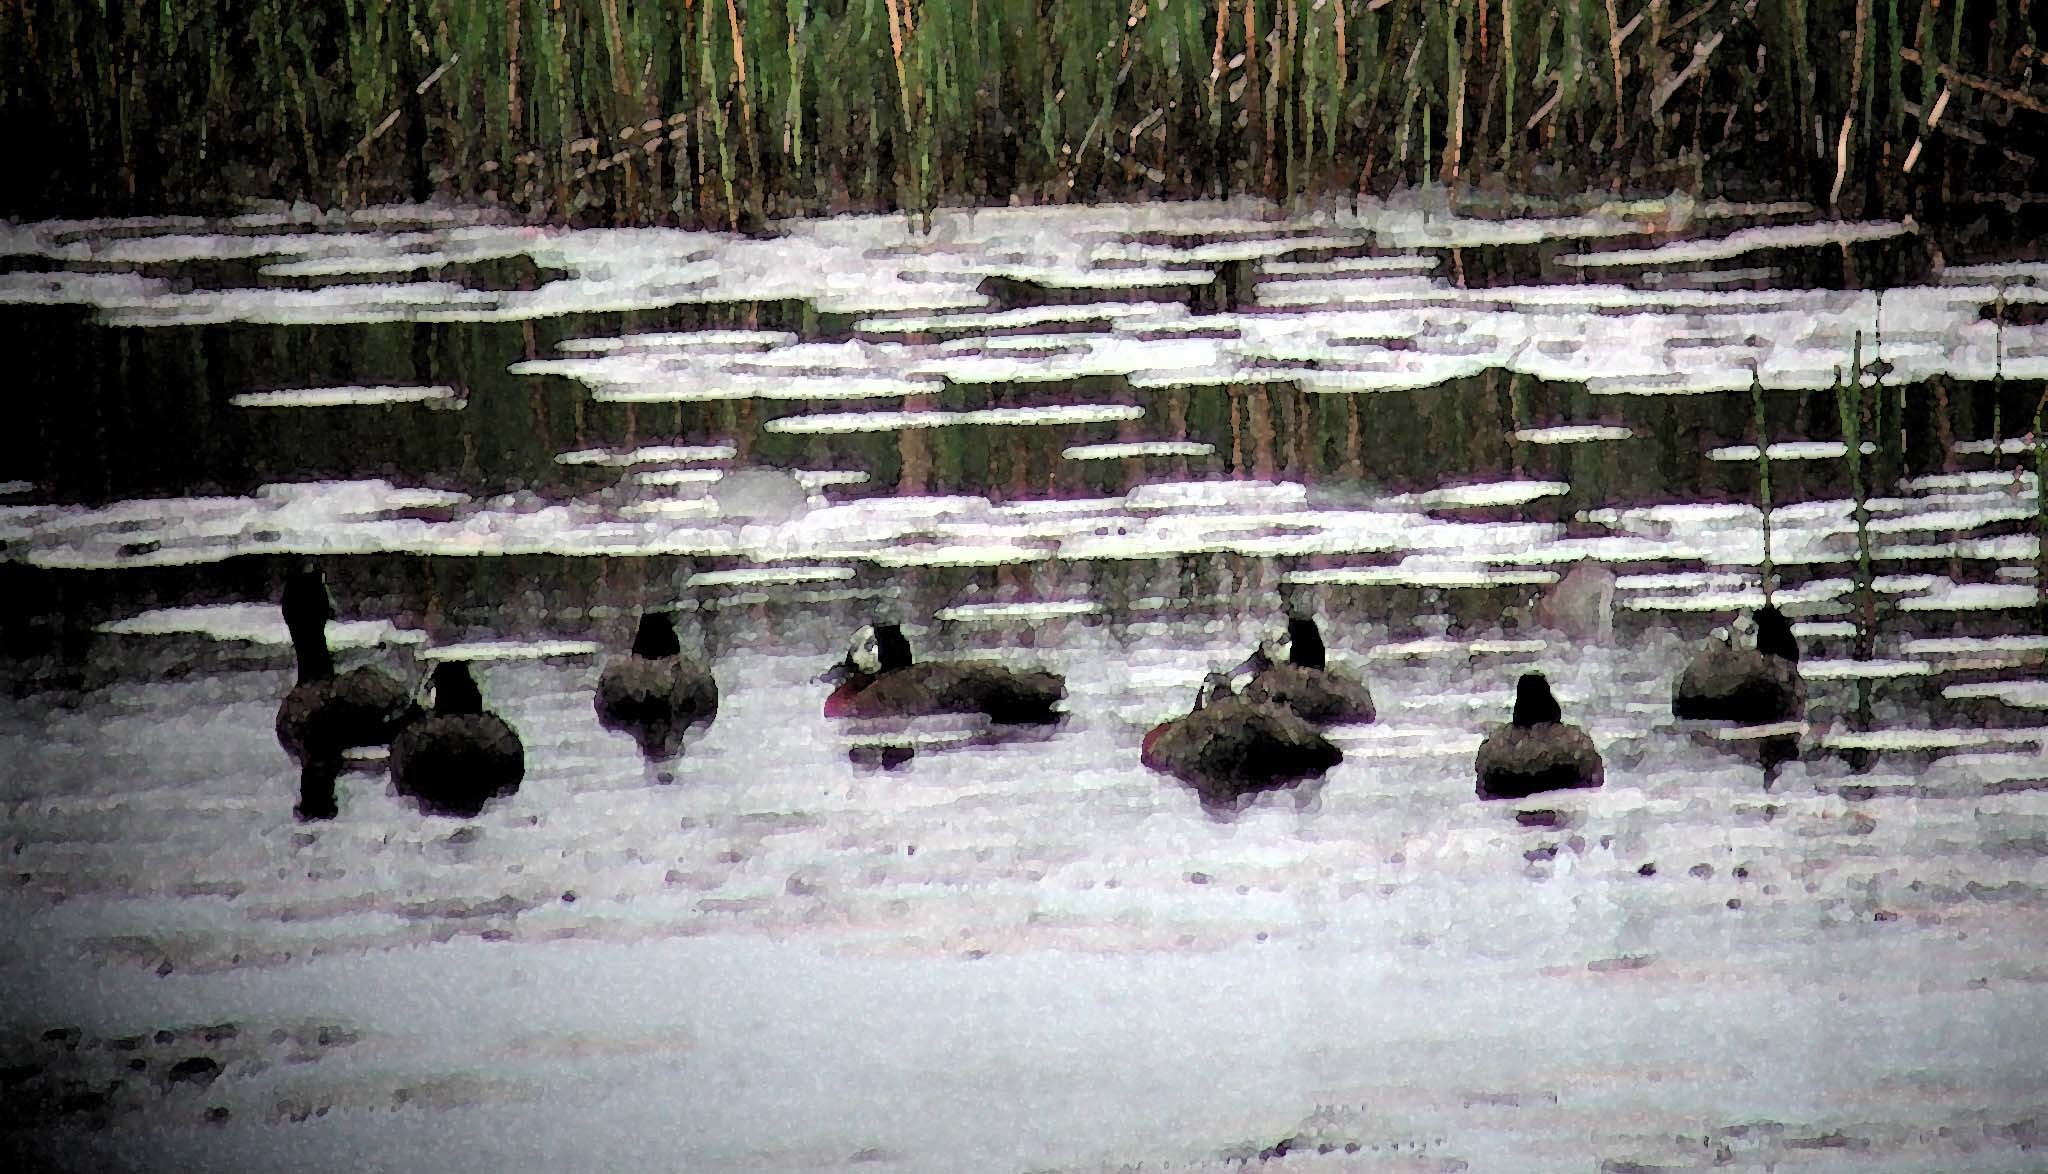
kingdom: Animalia
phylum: Chordata
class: Aves
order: Anseriformes
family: Anatidae
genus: Dendrocygna
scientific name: Dendrocygna viduata
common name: White-faced whistling duck
